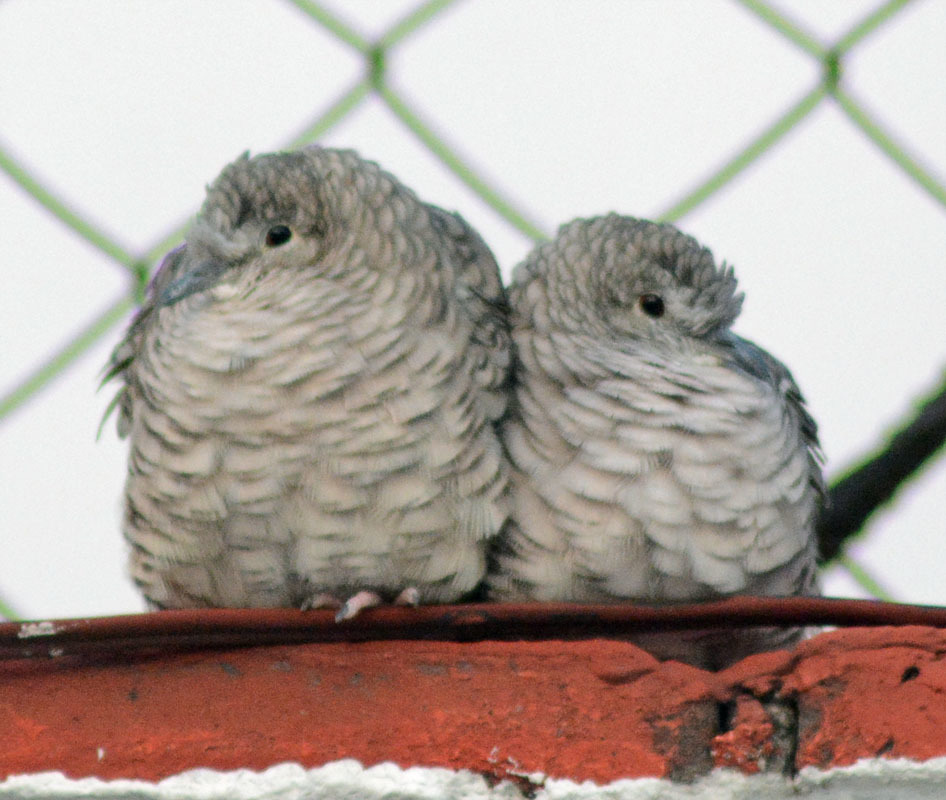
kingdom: Animalia
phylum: Chordata
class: Aves
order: Columbiformes
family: Columbidae
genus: Columbina
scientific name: Columbina inca
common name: Inca dove
